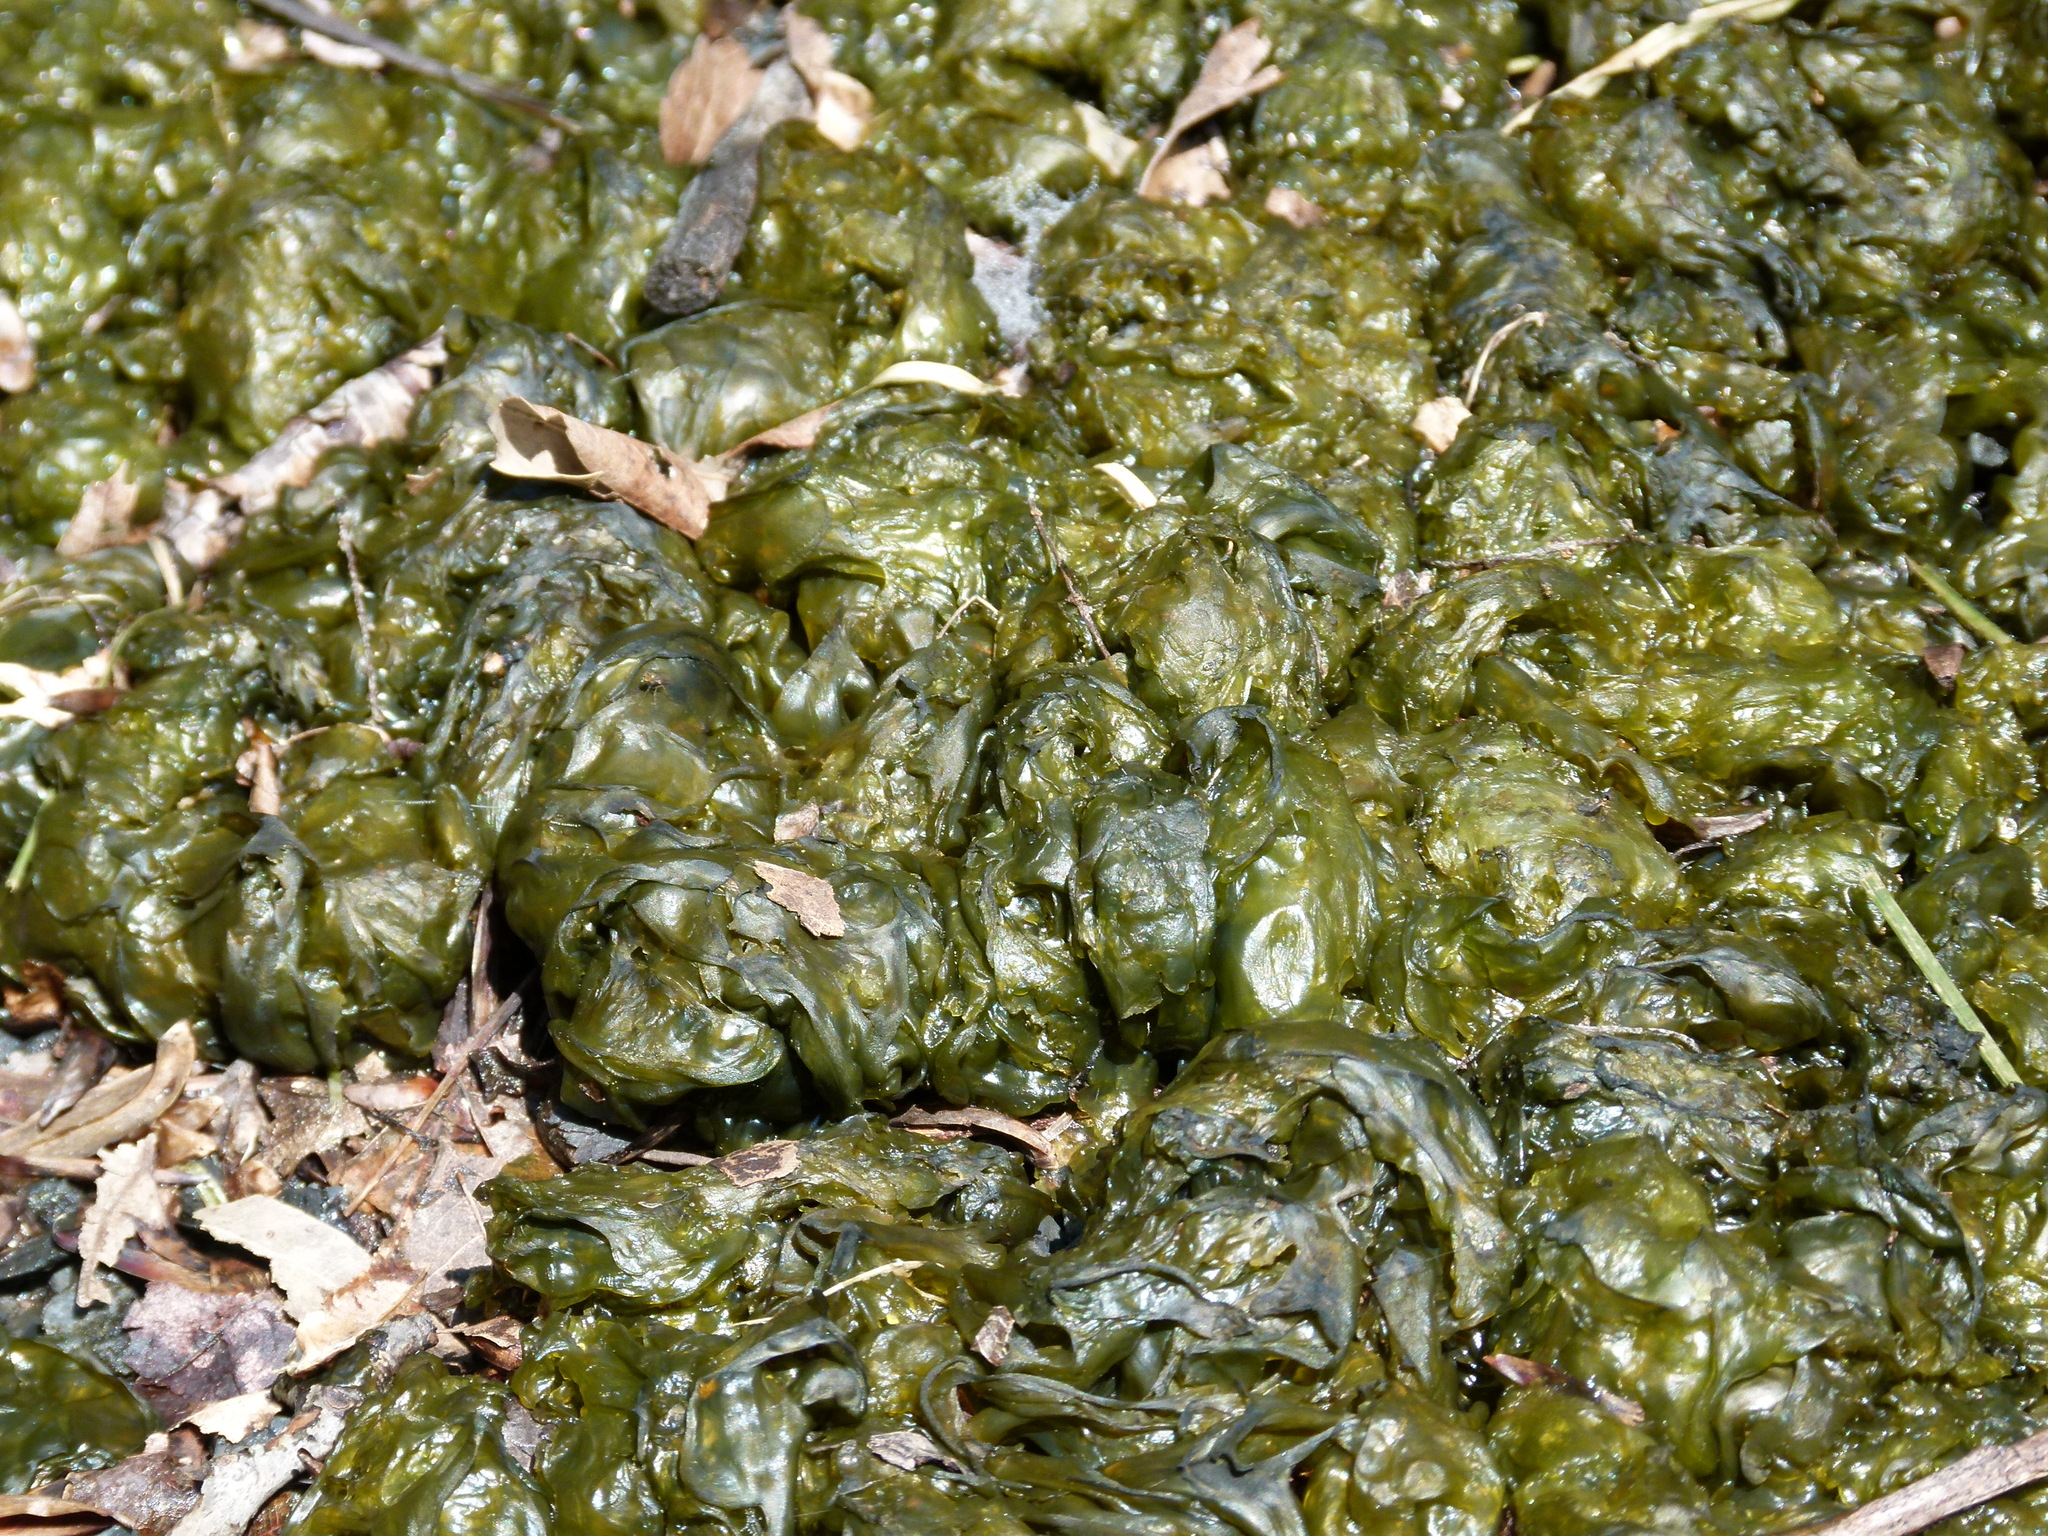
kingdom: Bacteria
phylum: Cyanobacteria
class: Cyanobacteriia
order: Cyanobacteriales
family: Nostocaceae
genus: Nostoc
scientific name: Nostoc commune
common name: Star jelly
